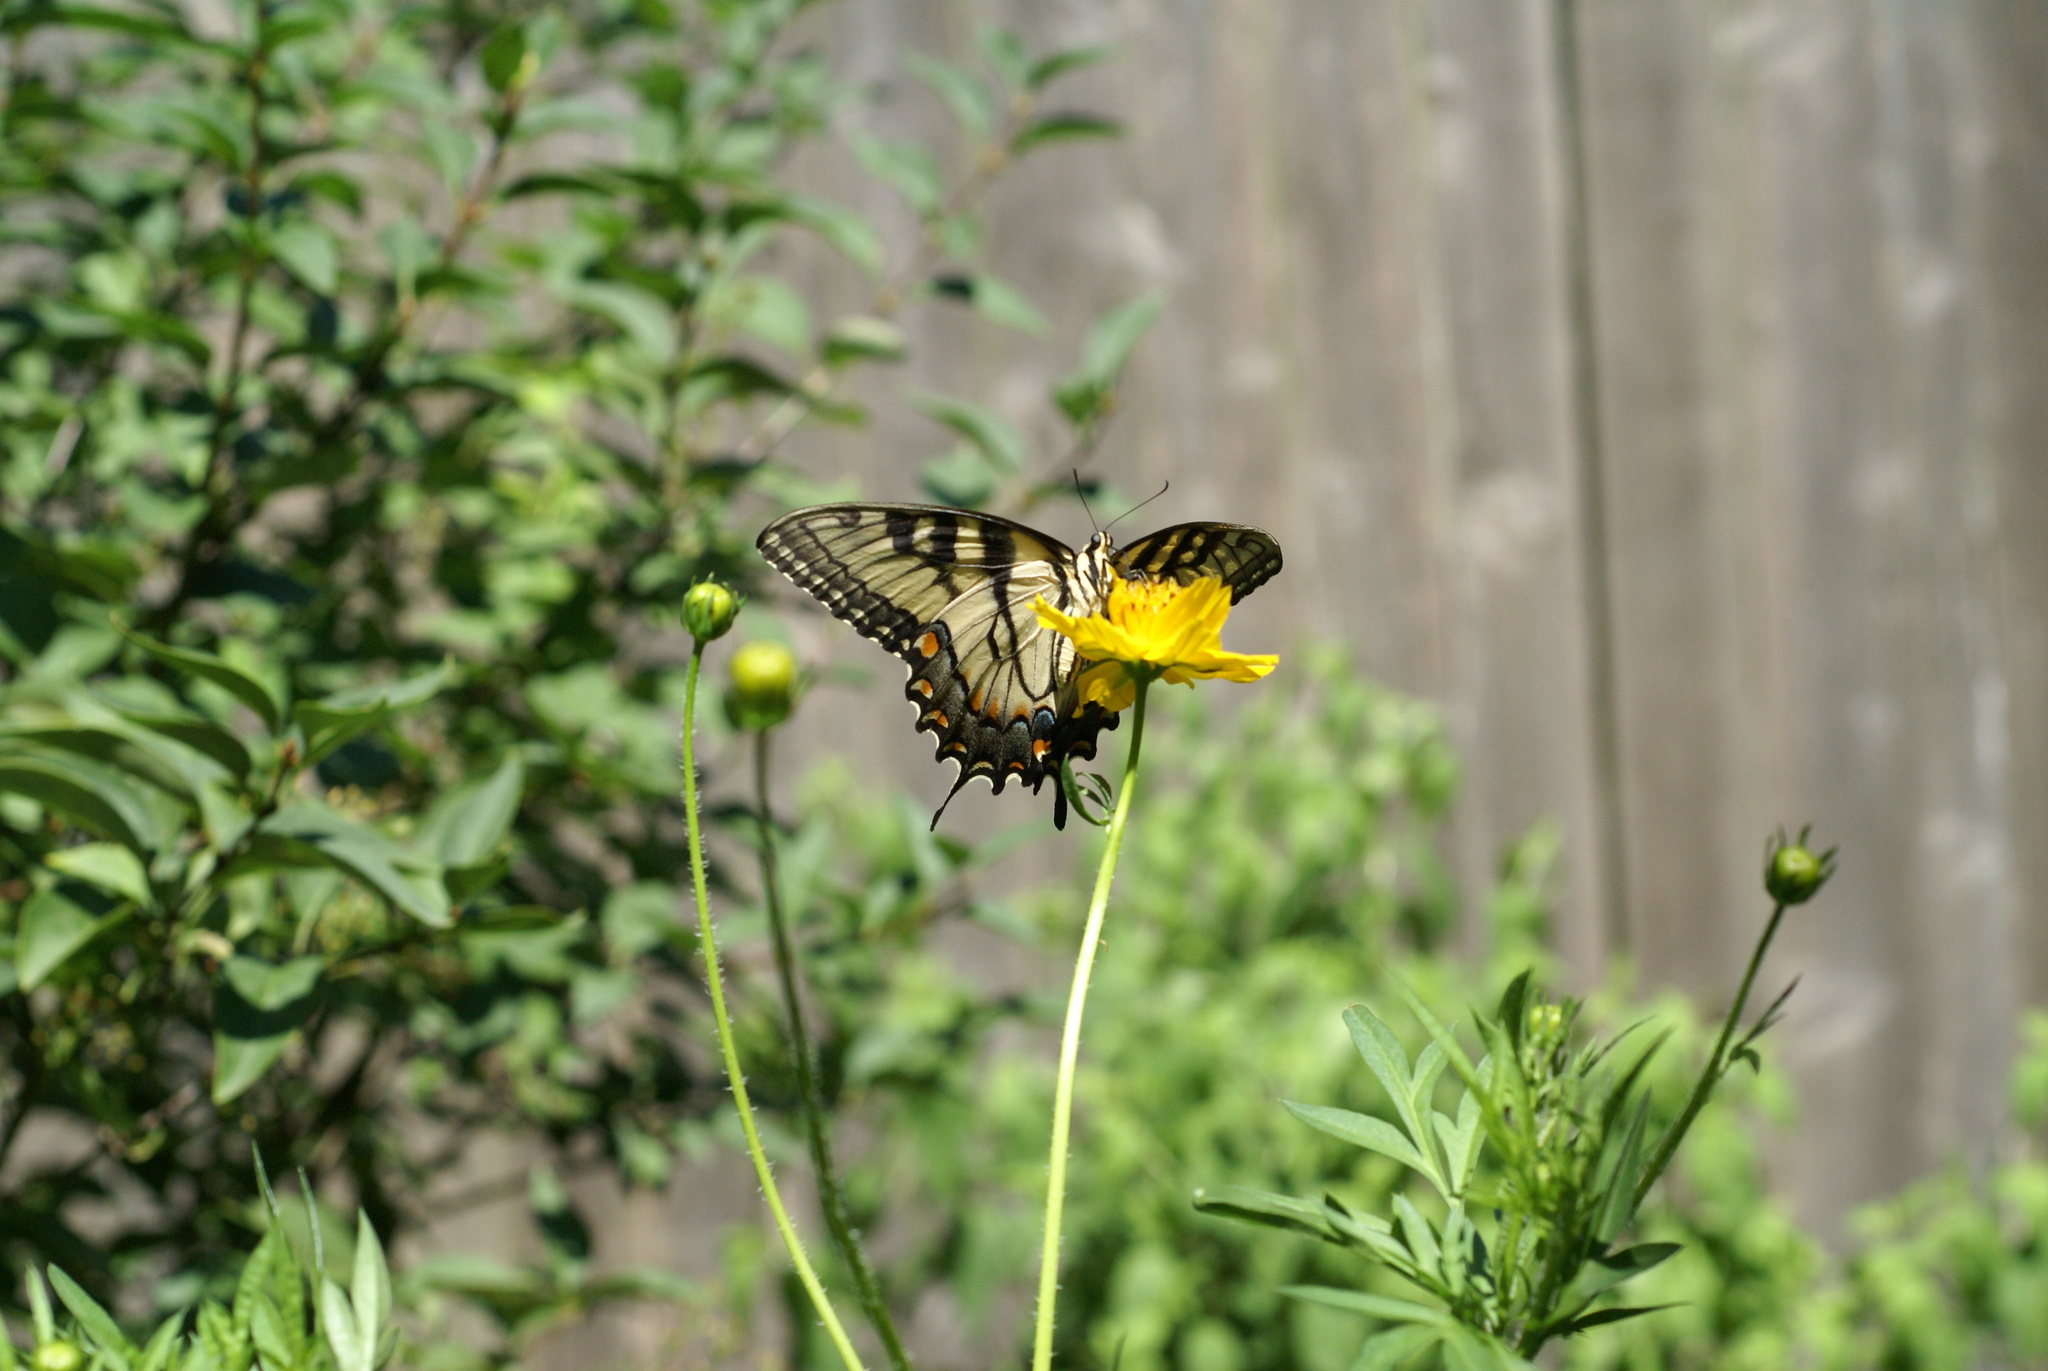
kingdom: Animalia
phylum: Arthropoda
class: Insecta
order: Lepidoptera
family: Papilionidae
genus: Papilio
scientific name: Papilio glaucus
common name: Tiger swallowtail
